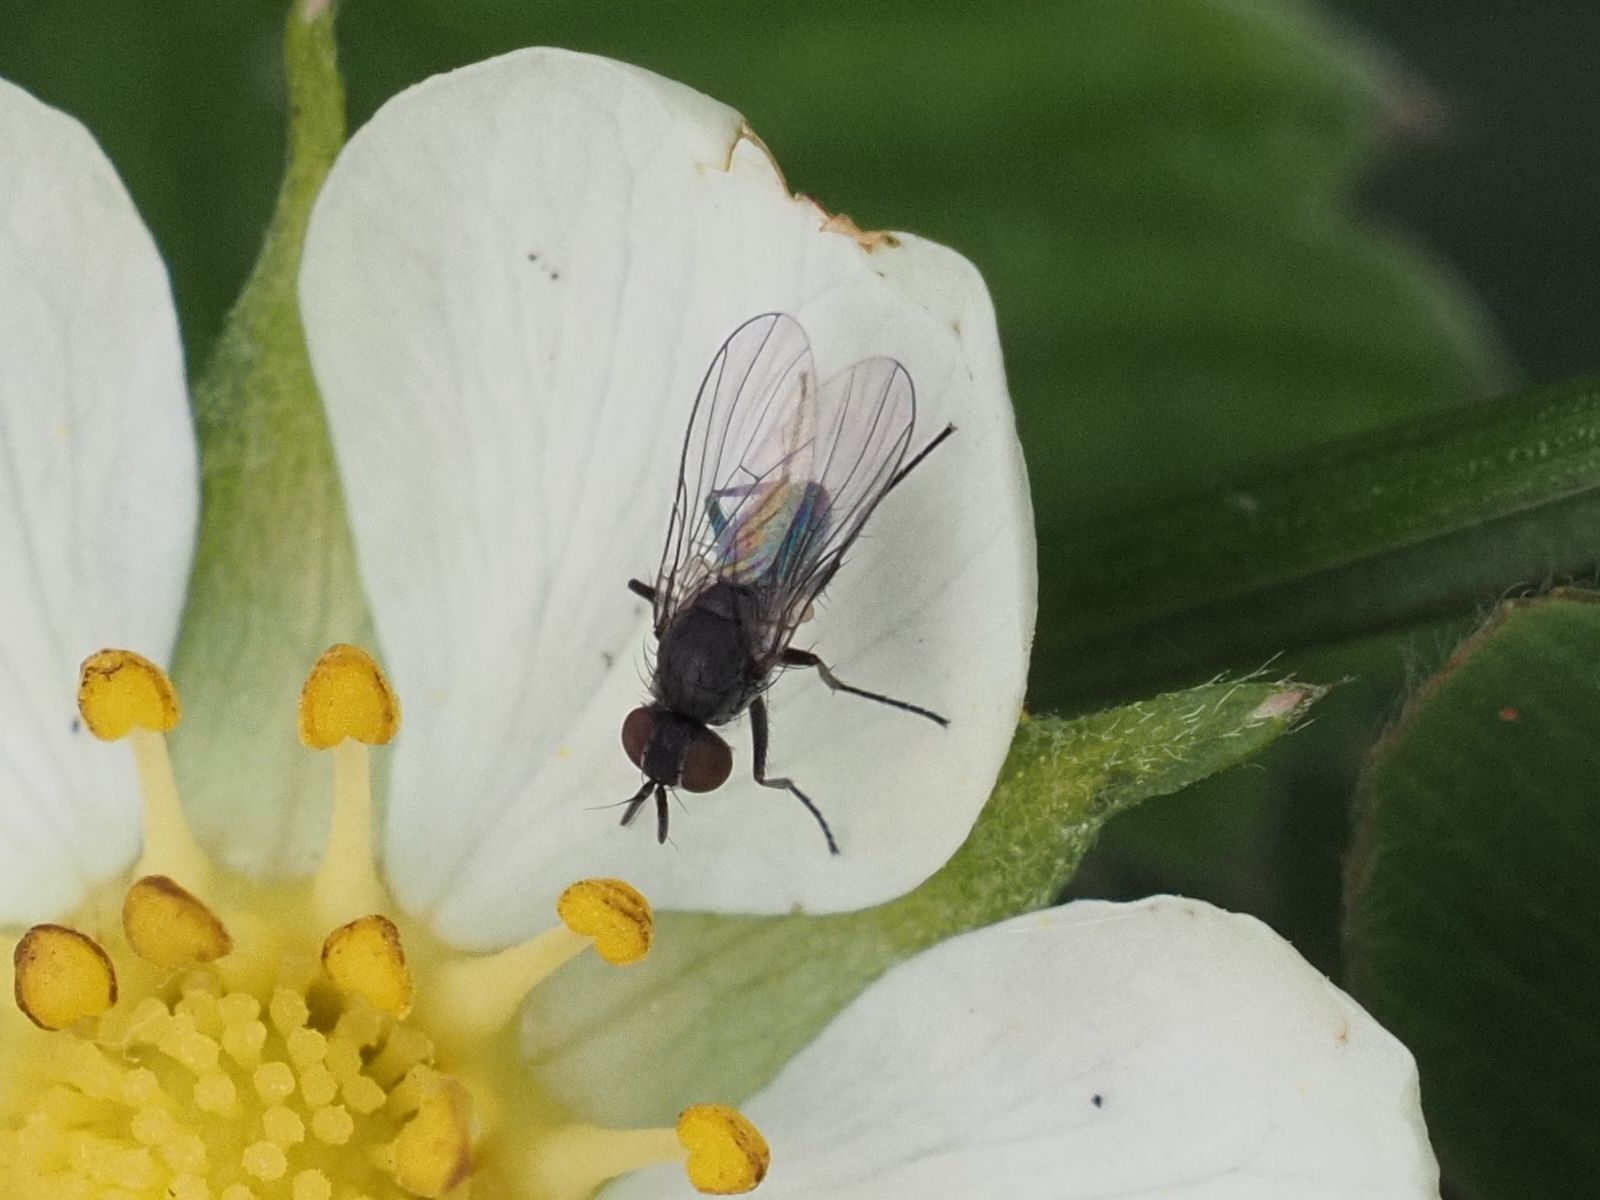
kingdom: Animalia
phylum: Arthropoda
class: Insecta
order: Diptera
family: Muscidae
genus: Coenosia
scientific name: Coenosia agromyzina
